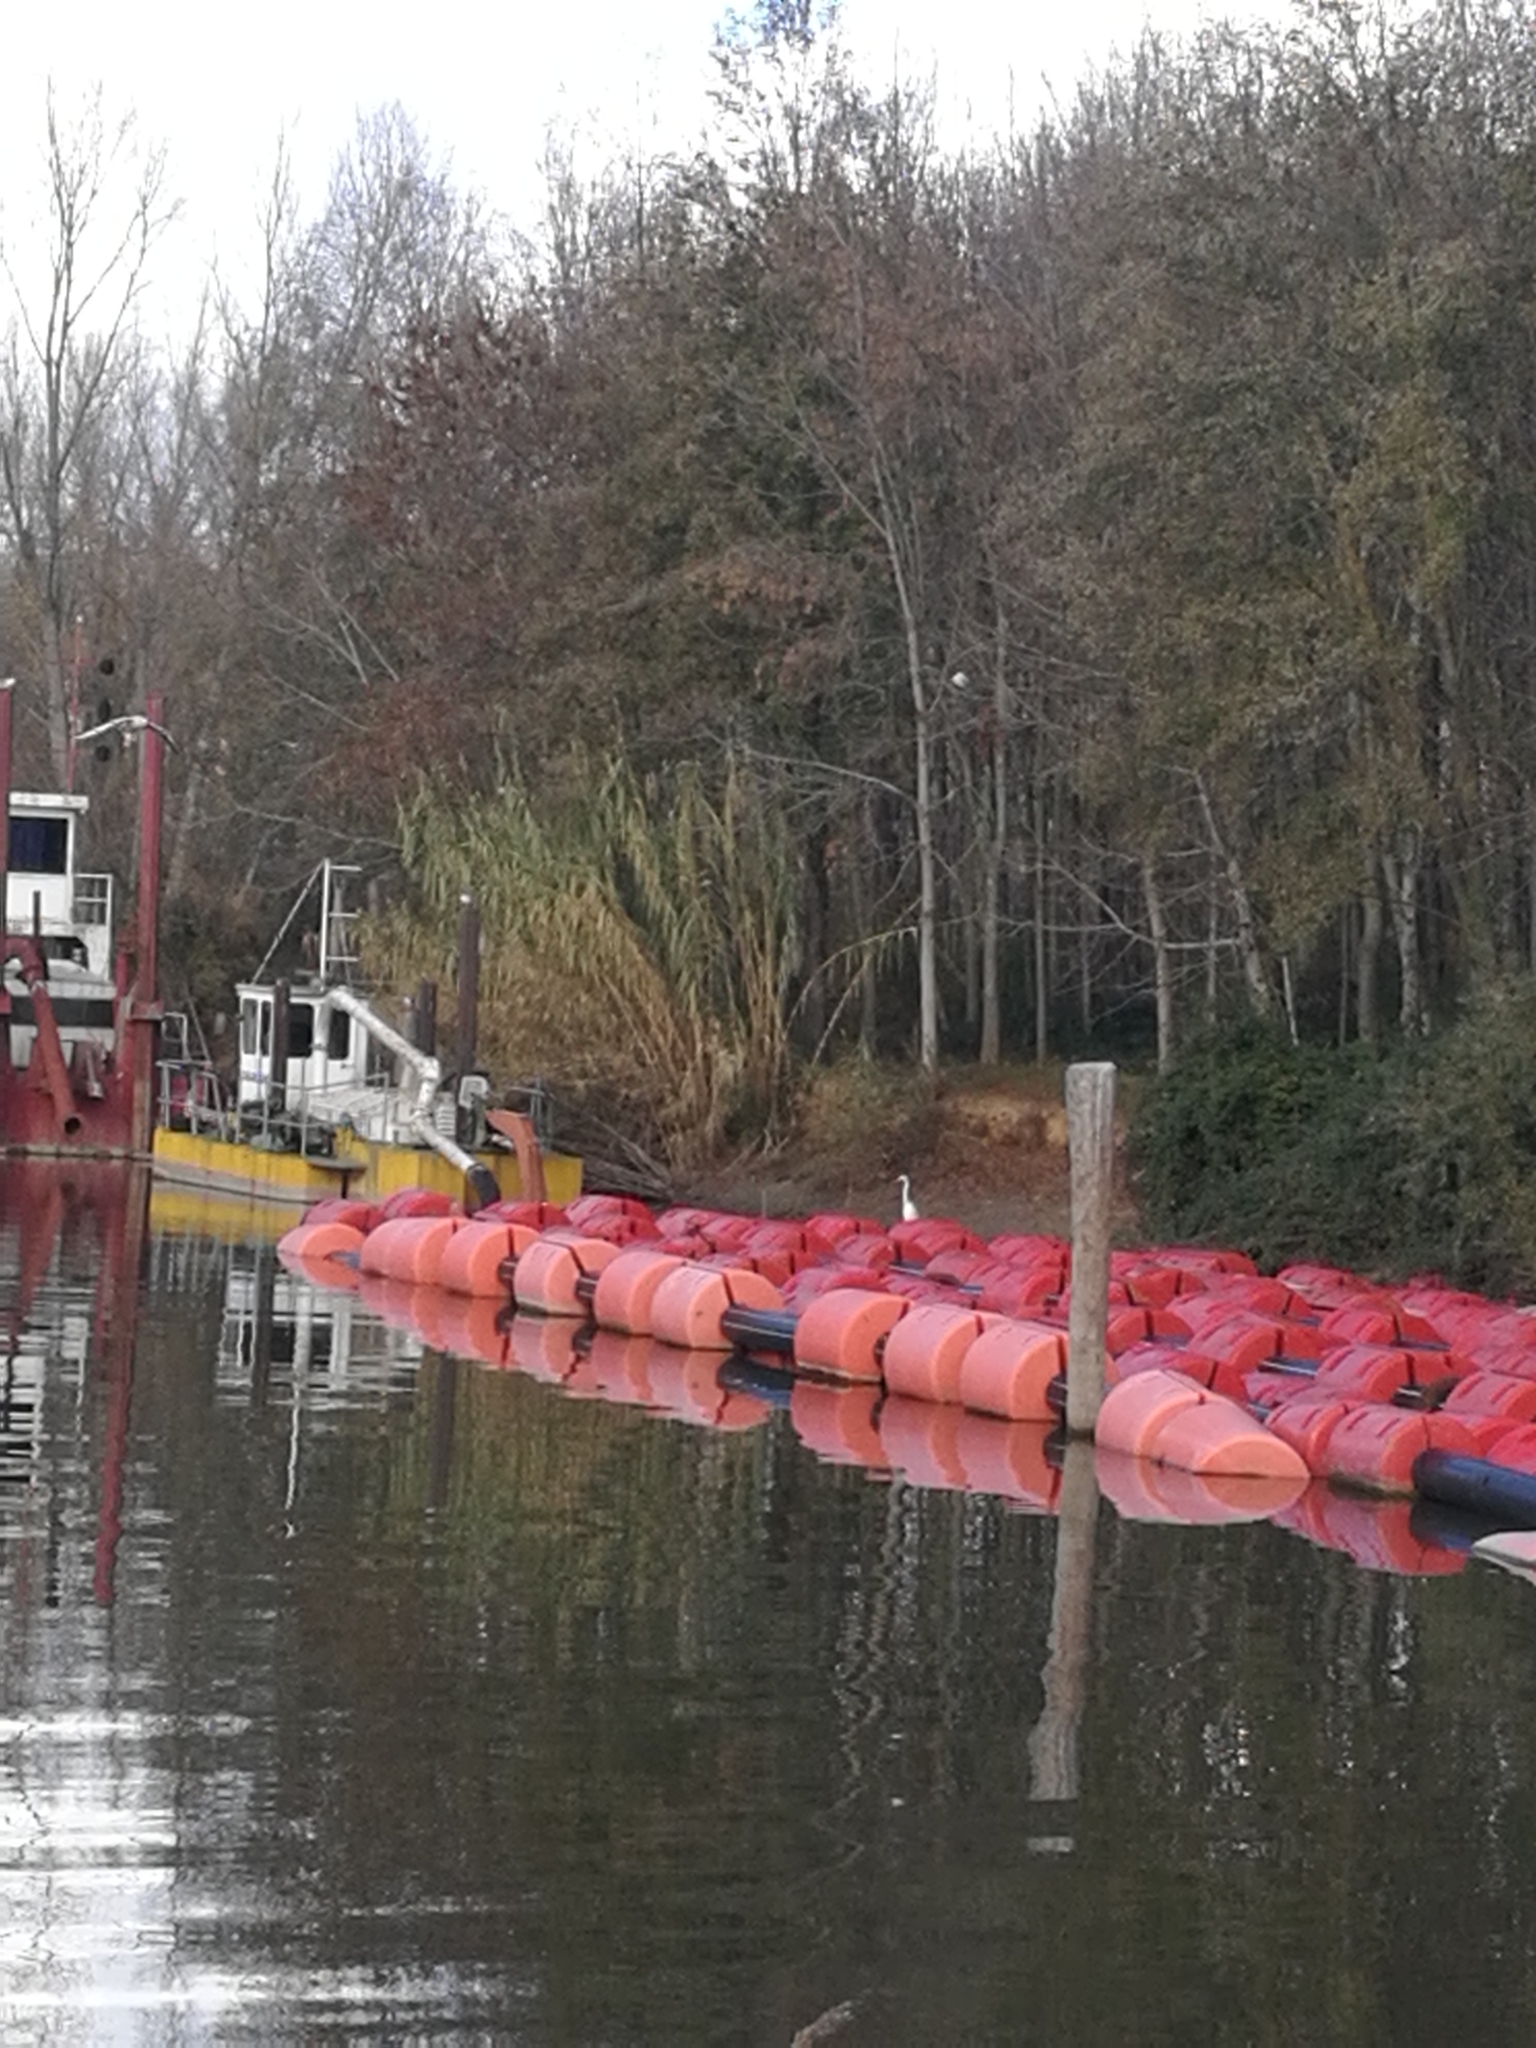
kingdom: Animalia
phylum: Chordata
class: Aves
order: Pelecaniformes
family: Ardeidae
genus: Ardea
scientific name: Ardea alba
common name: Great egret
